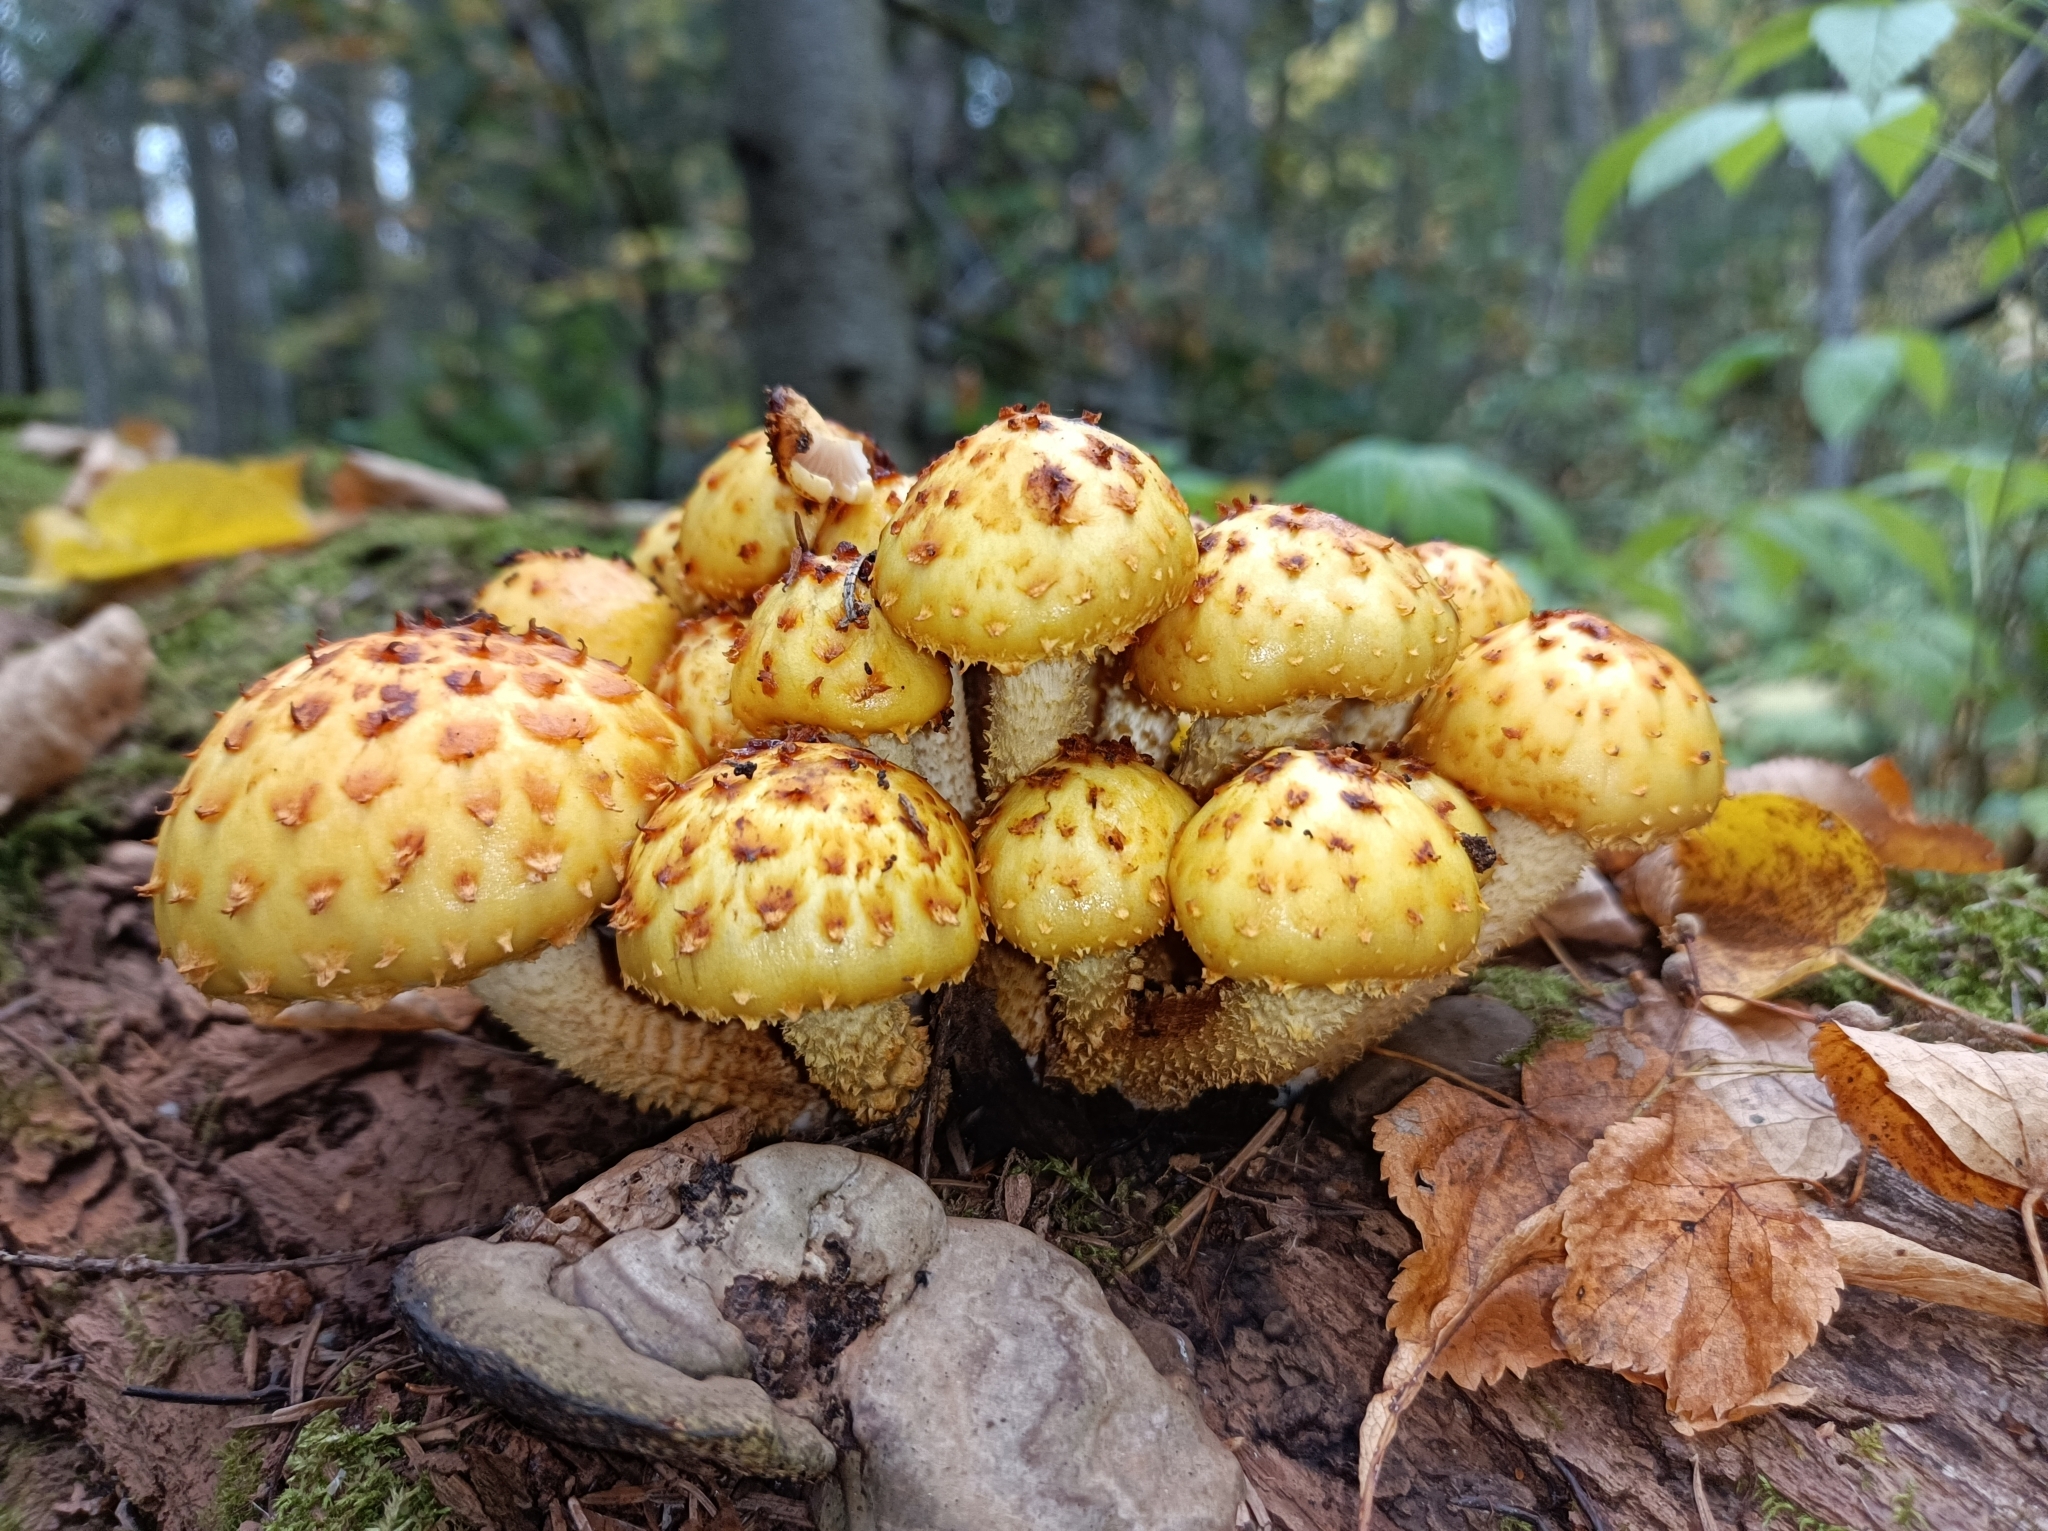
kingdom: Fungi
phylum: Basidiomycota
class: Agaricomycetes
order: Agaricales
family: Strophariaceae
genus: Pholiota
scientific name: Pholiota aurivella
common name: Golden scalycap
